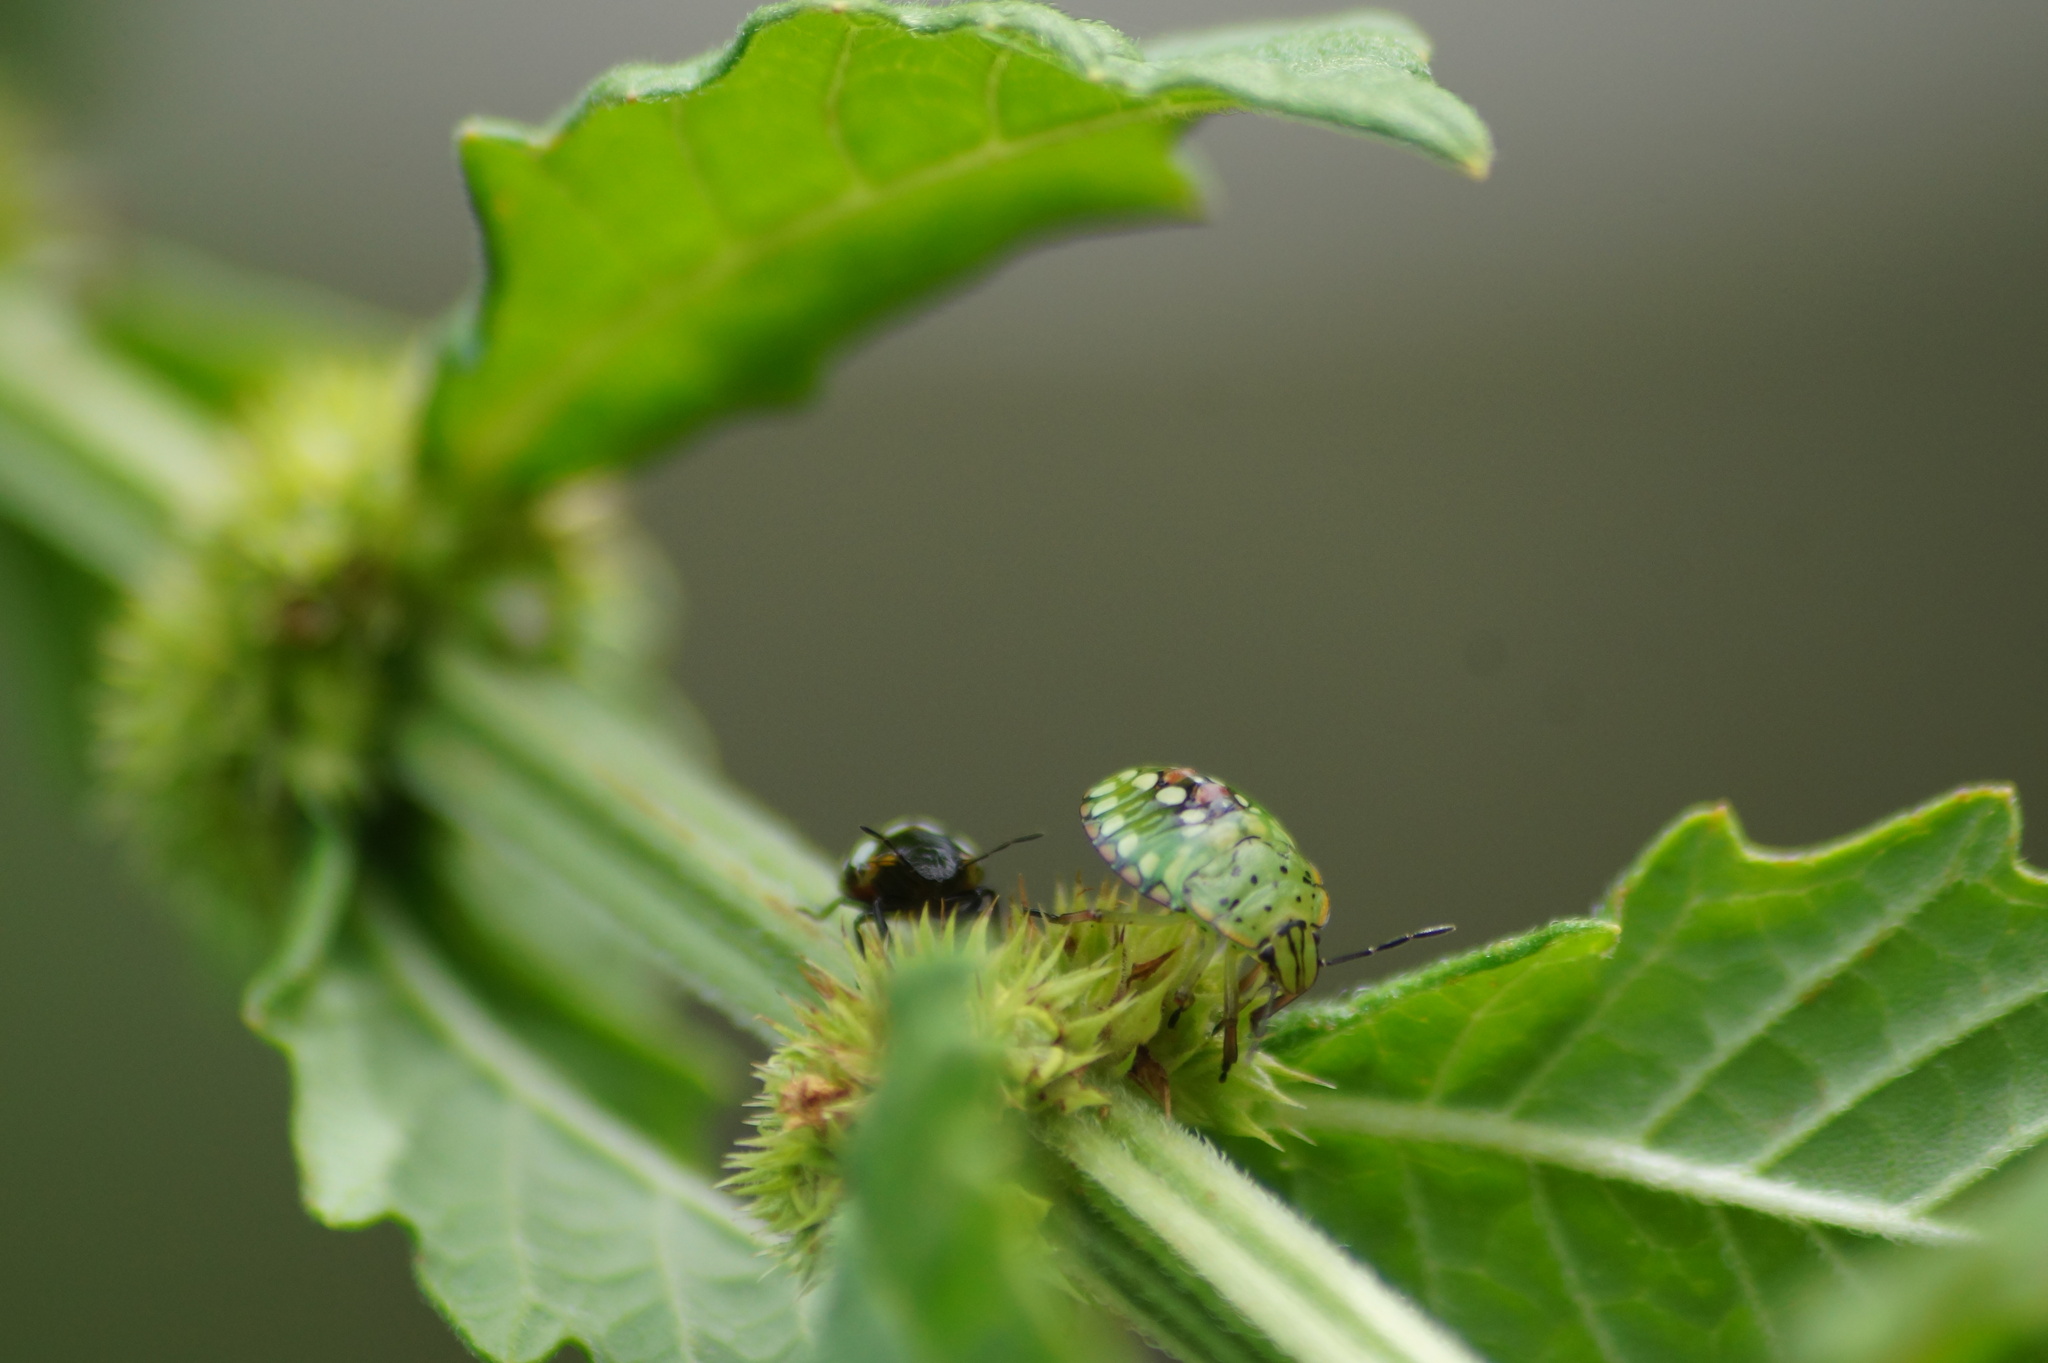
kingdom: Animalia
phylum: Arthropoda
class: Insecta
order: Hemiptera
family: Pentatomidae
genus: Nezara
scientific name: Nezara viridula
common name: Southern green stink bug
